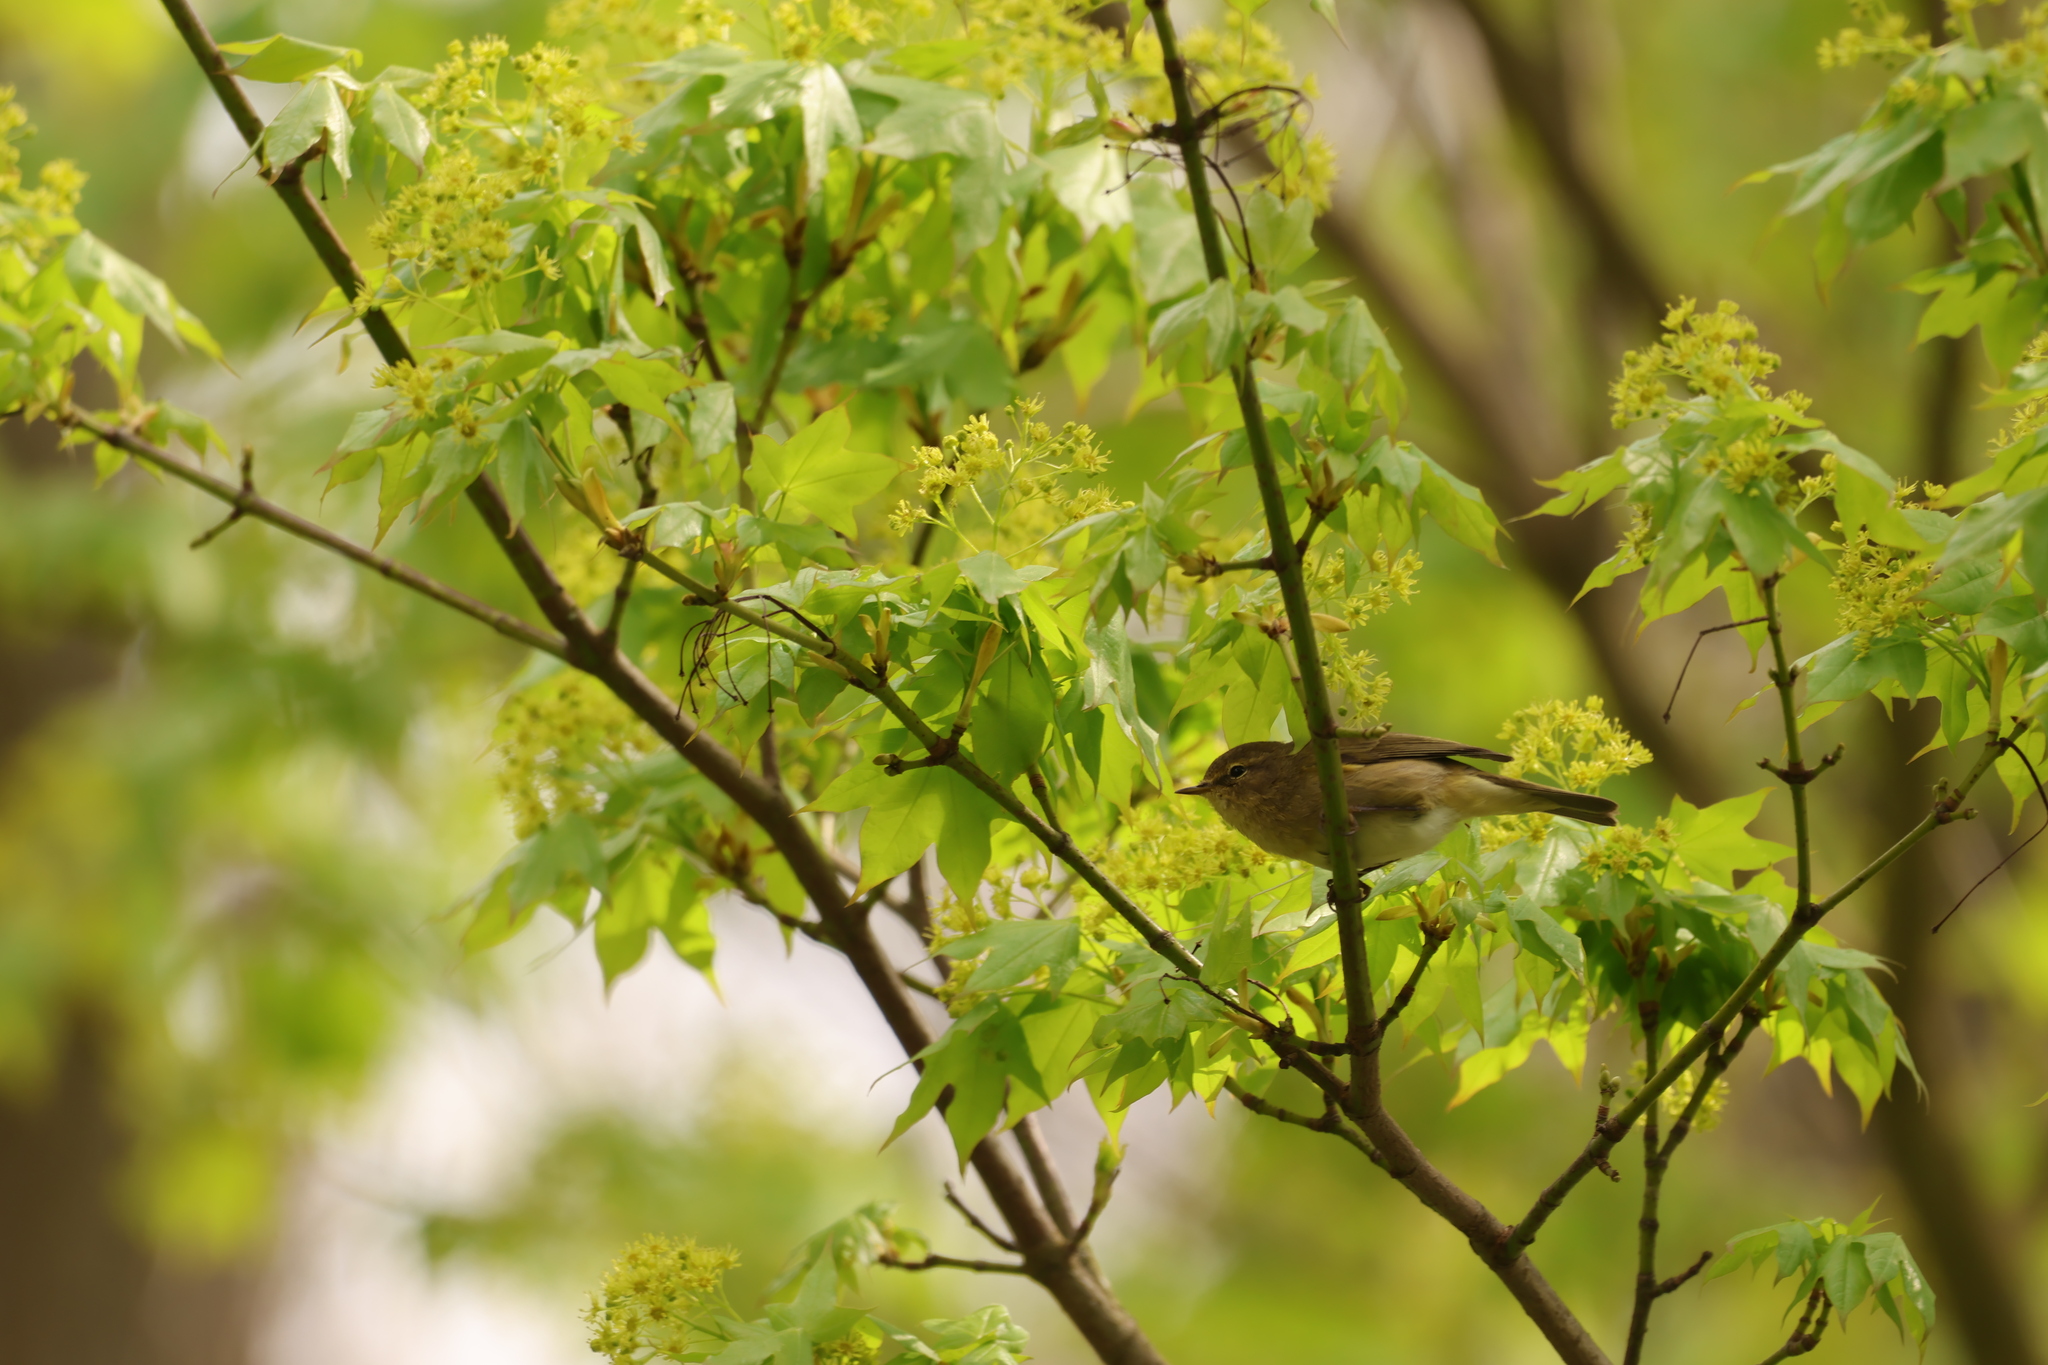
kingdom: Animalia
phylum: Chordata
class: Aves
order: Passeriformes
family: Phylloscopidae
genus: Phylloscopus
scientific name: Phylloscopus collybita
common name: Common chiffchaff
